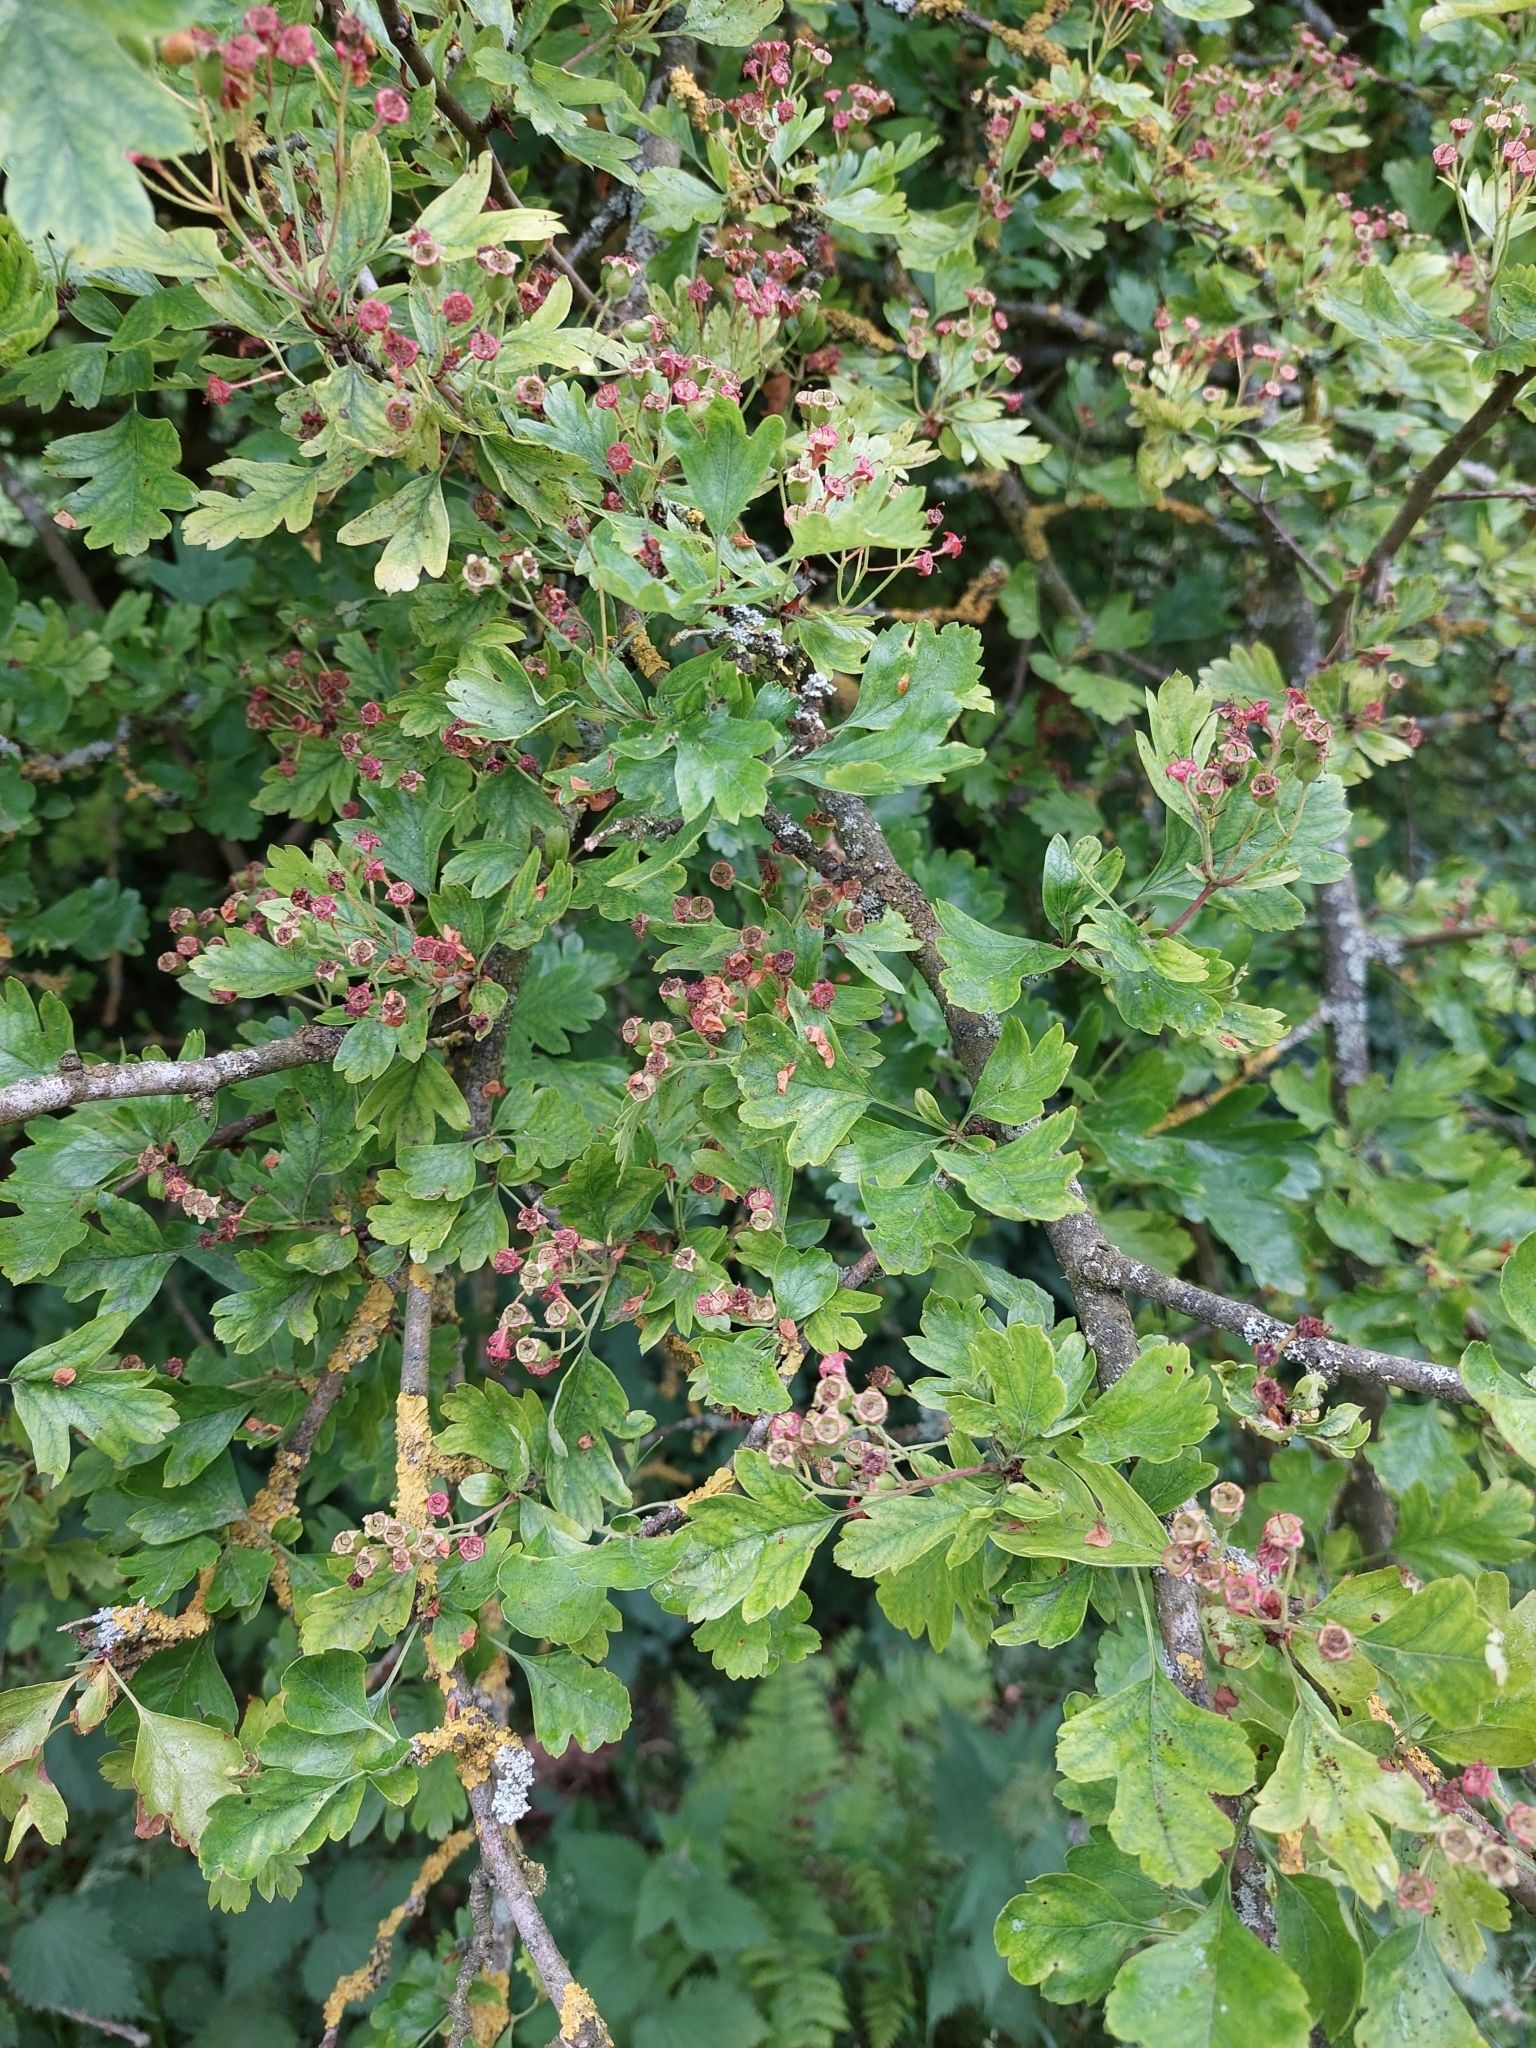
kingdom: Plantae
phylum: Tracheophyta
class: Magnoliopsida
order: Rosales
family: Rosaceae
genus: Crataegus
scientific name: Crataegus monogyna
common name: Hawthorn
